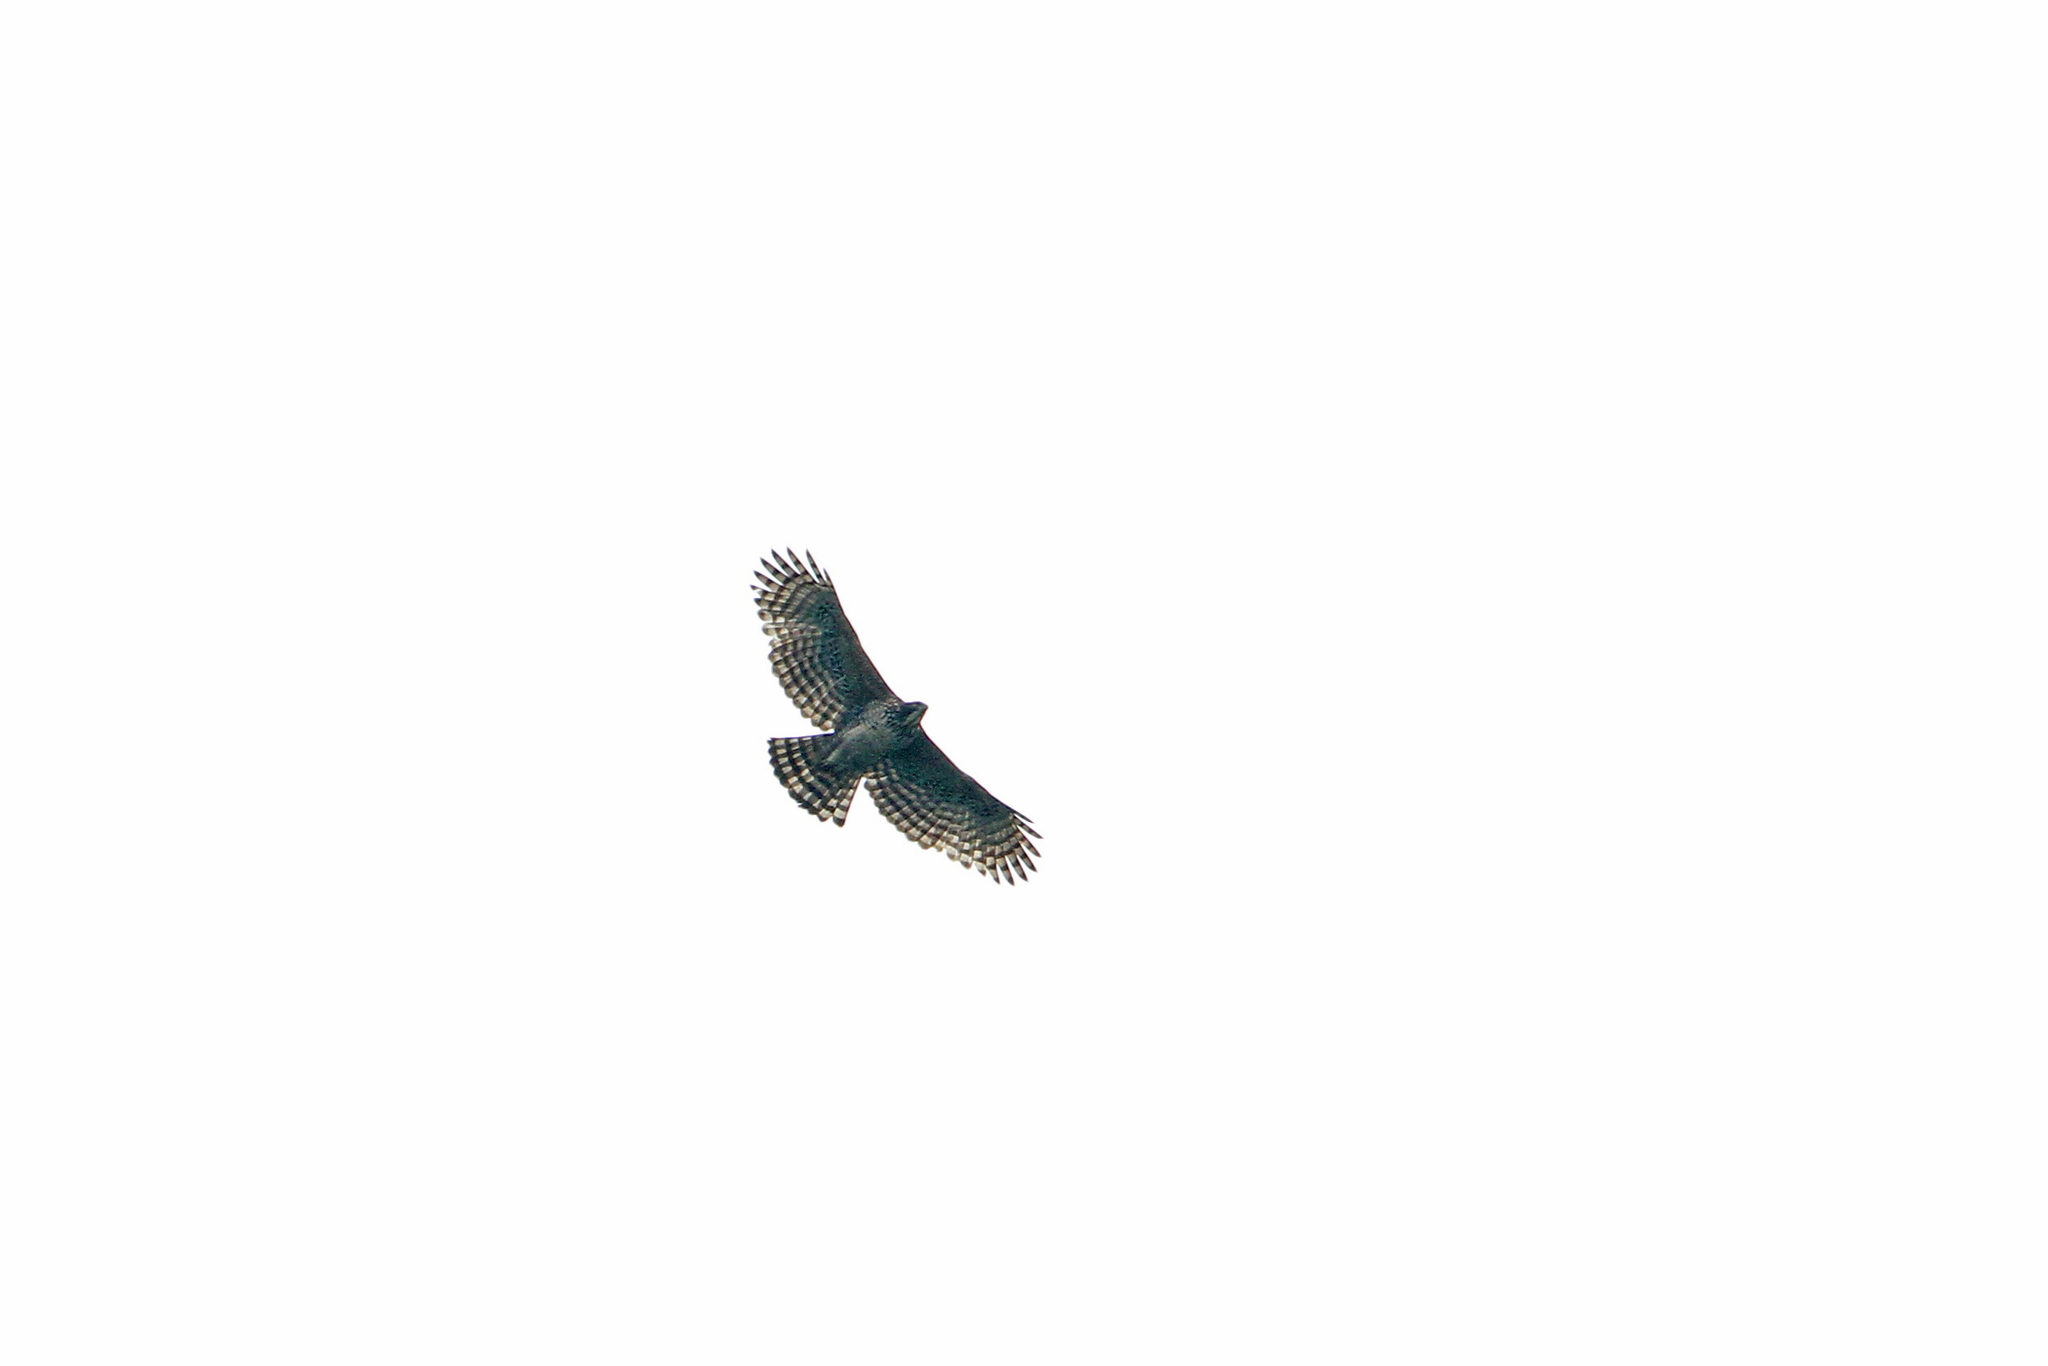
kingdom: Animalia
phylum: Chordata
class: Aves
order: Accipitriformes
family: Accipitridae
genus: Nisaetus
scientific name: Nisaetus nipalensis
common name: Mountain hawk-eagle
